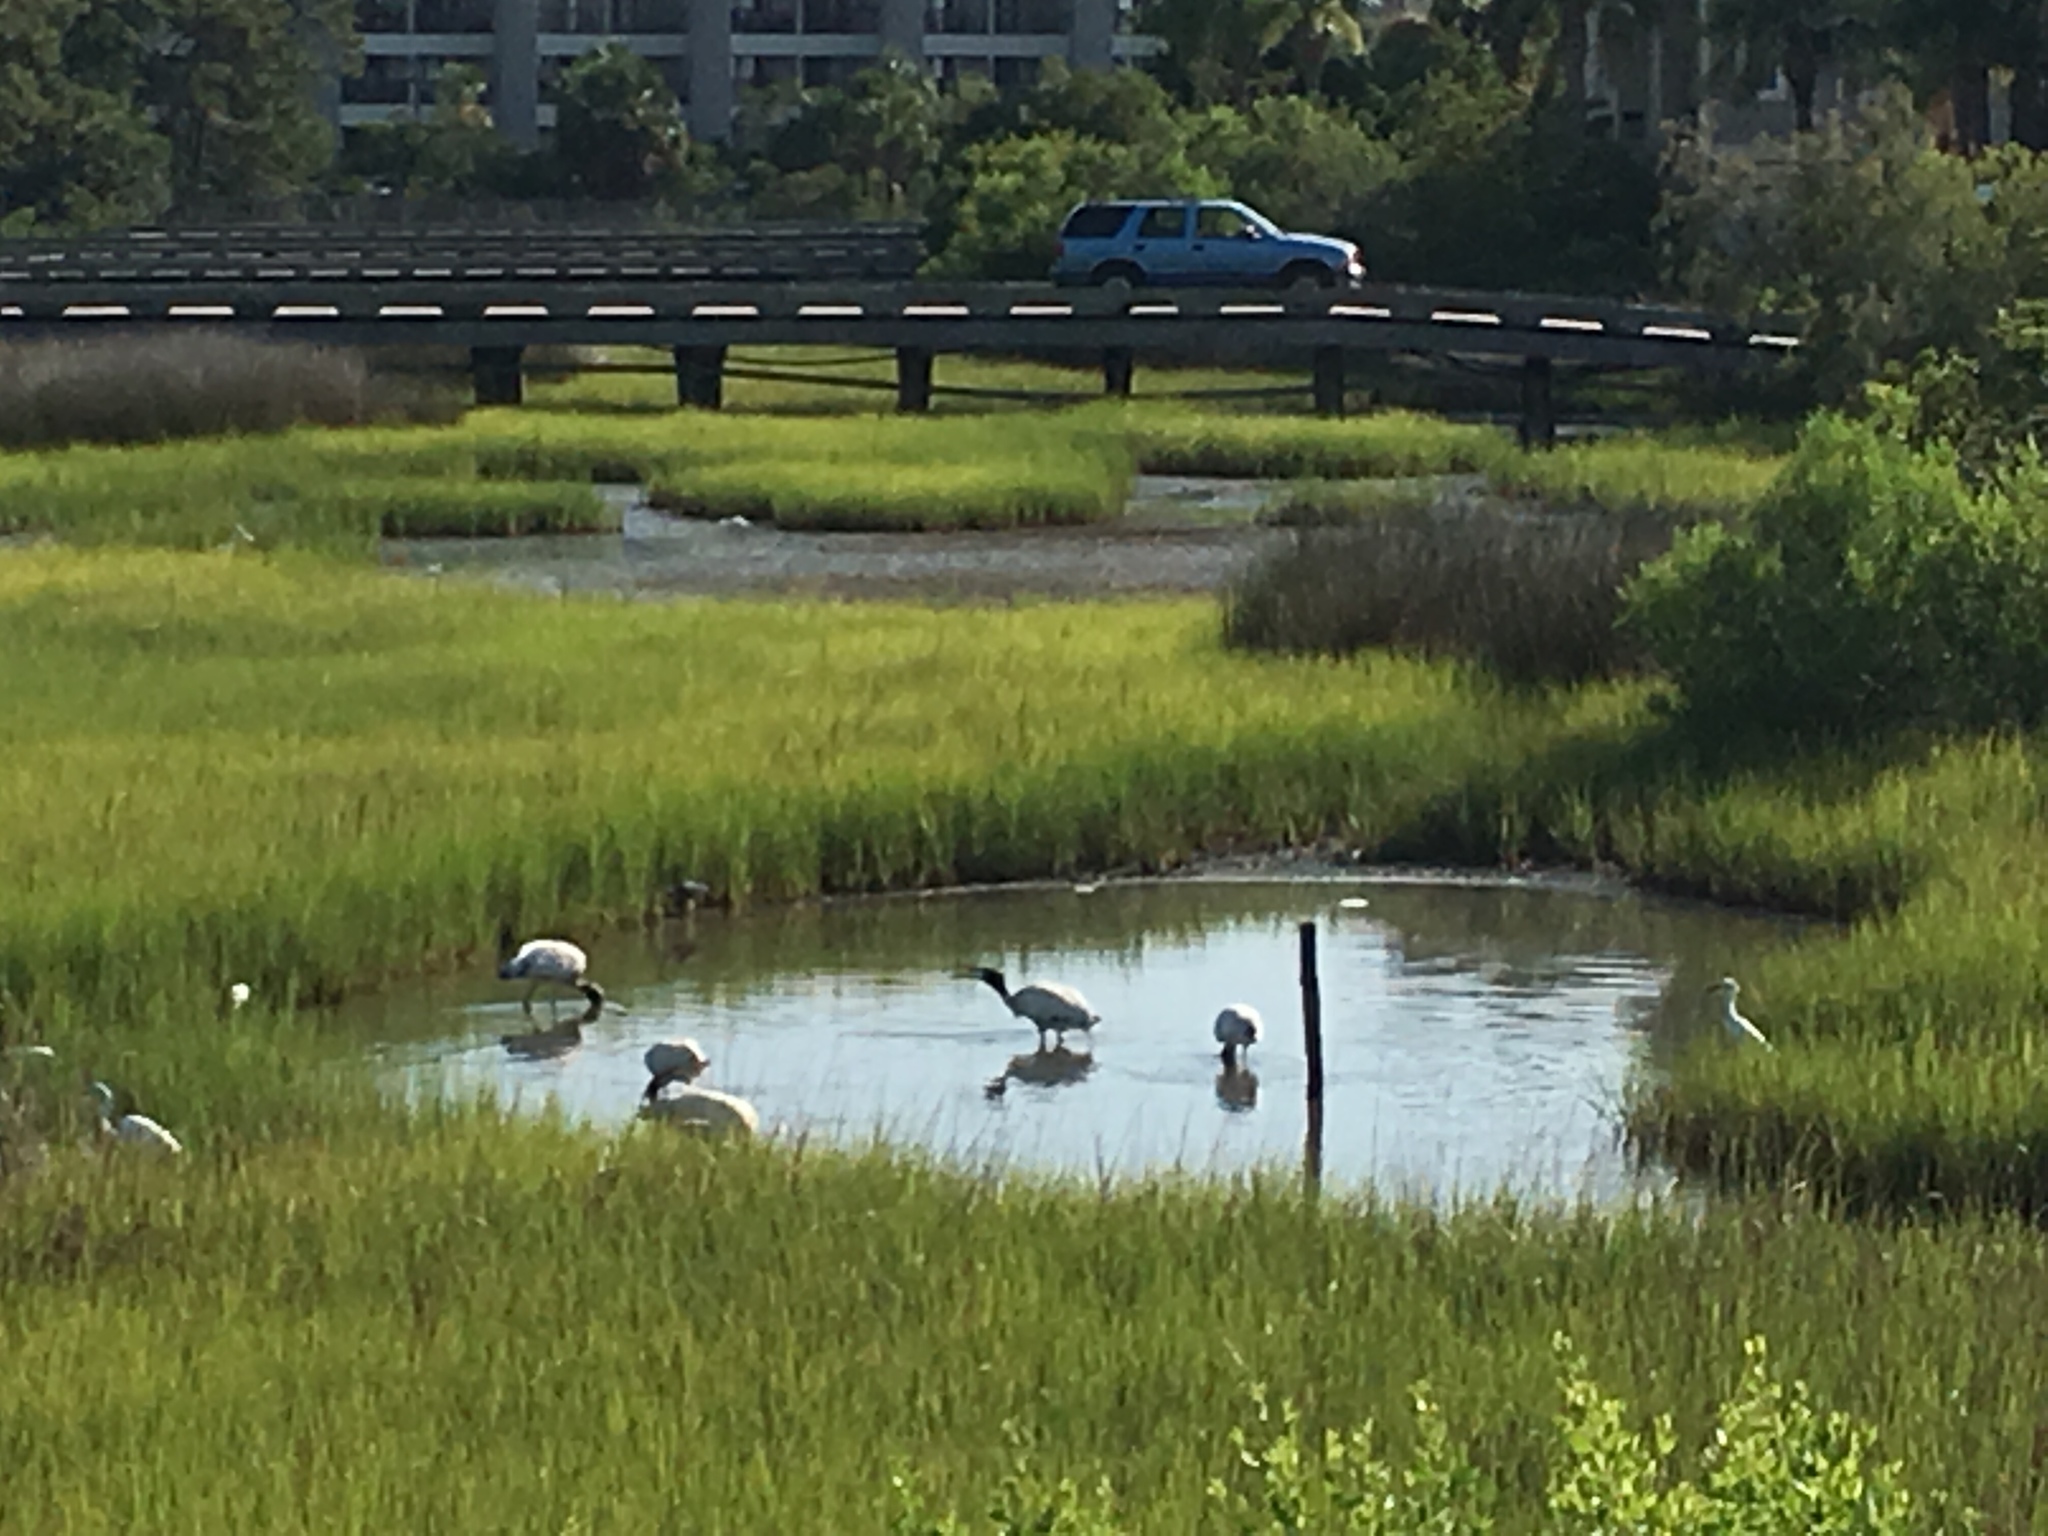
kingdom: Animalia
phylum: Chordata
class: Aves
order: Ciconiiformes
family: Ciconiidae
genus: Mycteria
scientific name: Mycteria americana
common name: Wood stork
